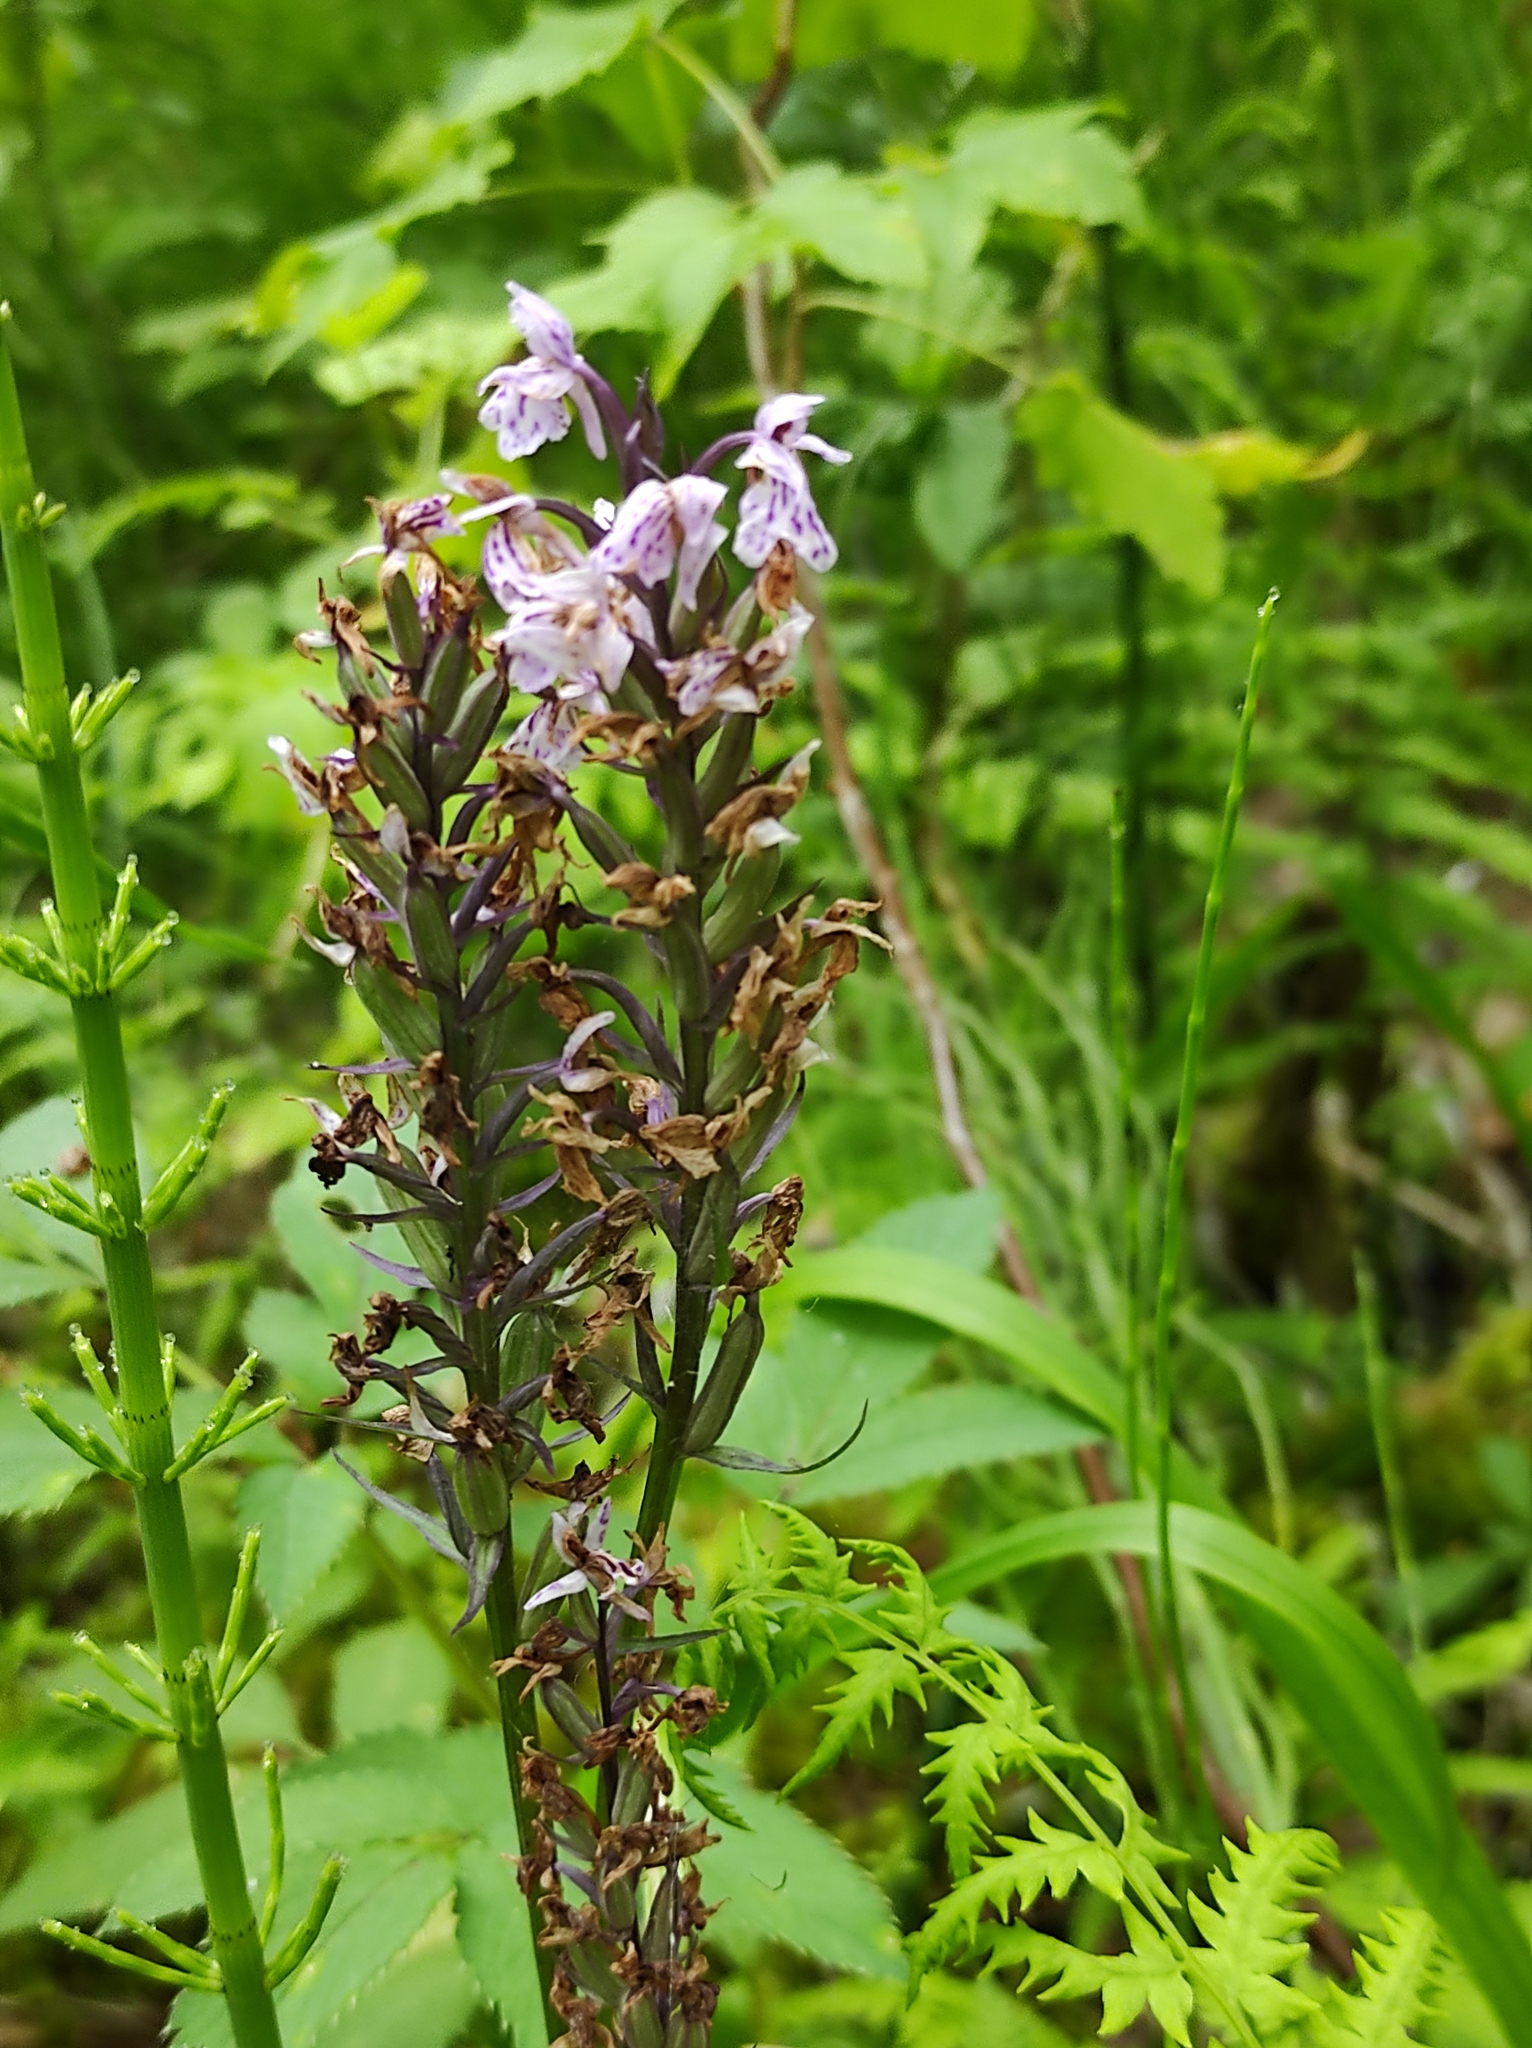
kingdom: Plantae
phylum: Tracheophyta
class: Liliopsida
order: Asparagales
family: Orchidaceae
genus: Dactylorhiza
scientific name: Dactylorhiza maculata
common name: Heath spotted-orchid
